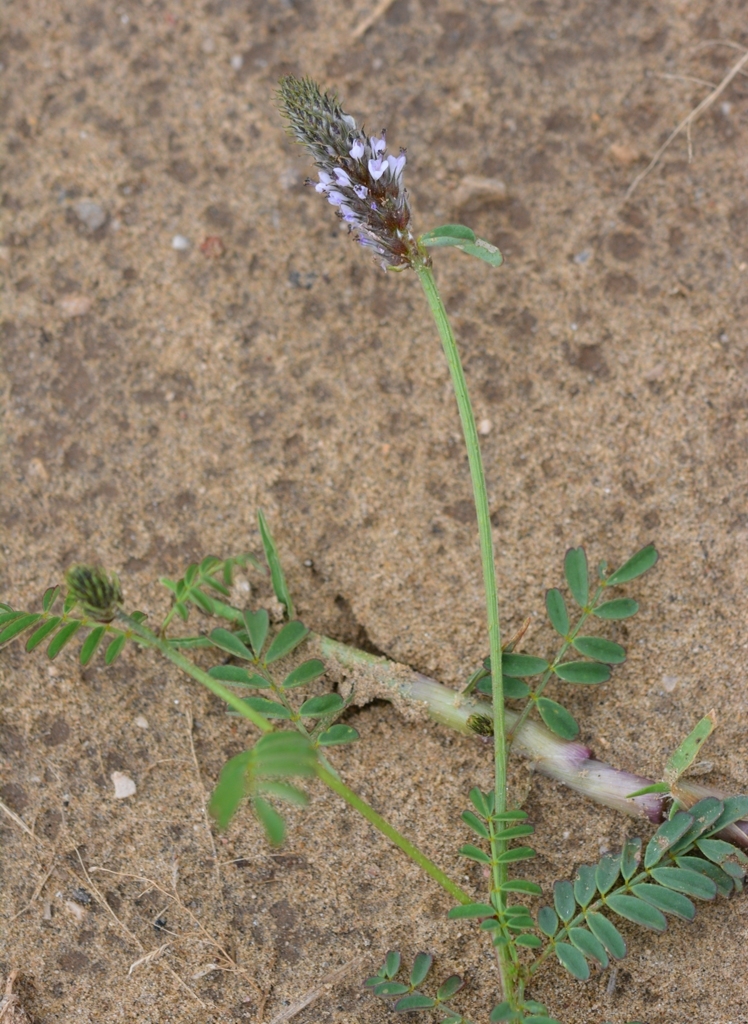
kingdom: Plantae
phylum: Tracheophyta
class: Magnoliopsida
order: Fabales
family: Fabaceae
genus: Dalea
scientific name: Dalea leporina
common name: Foxtail dalea
